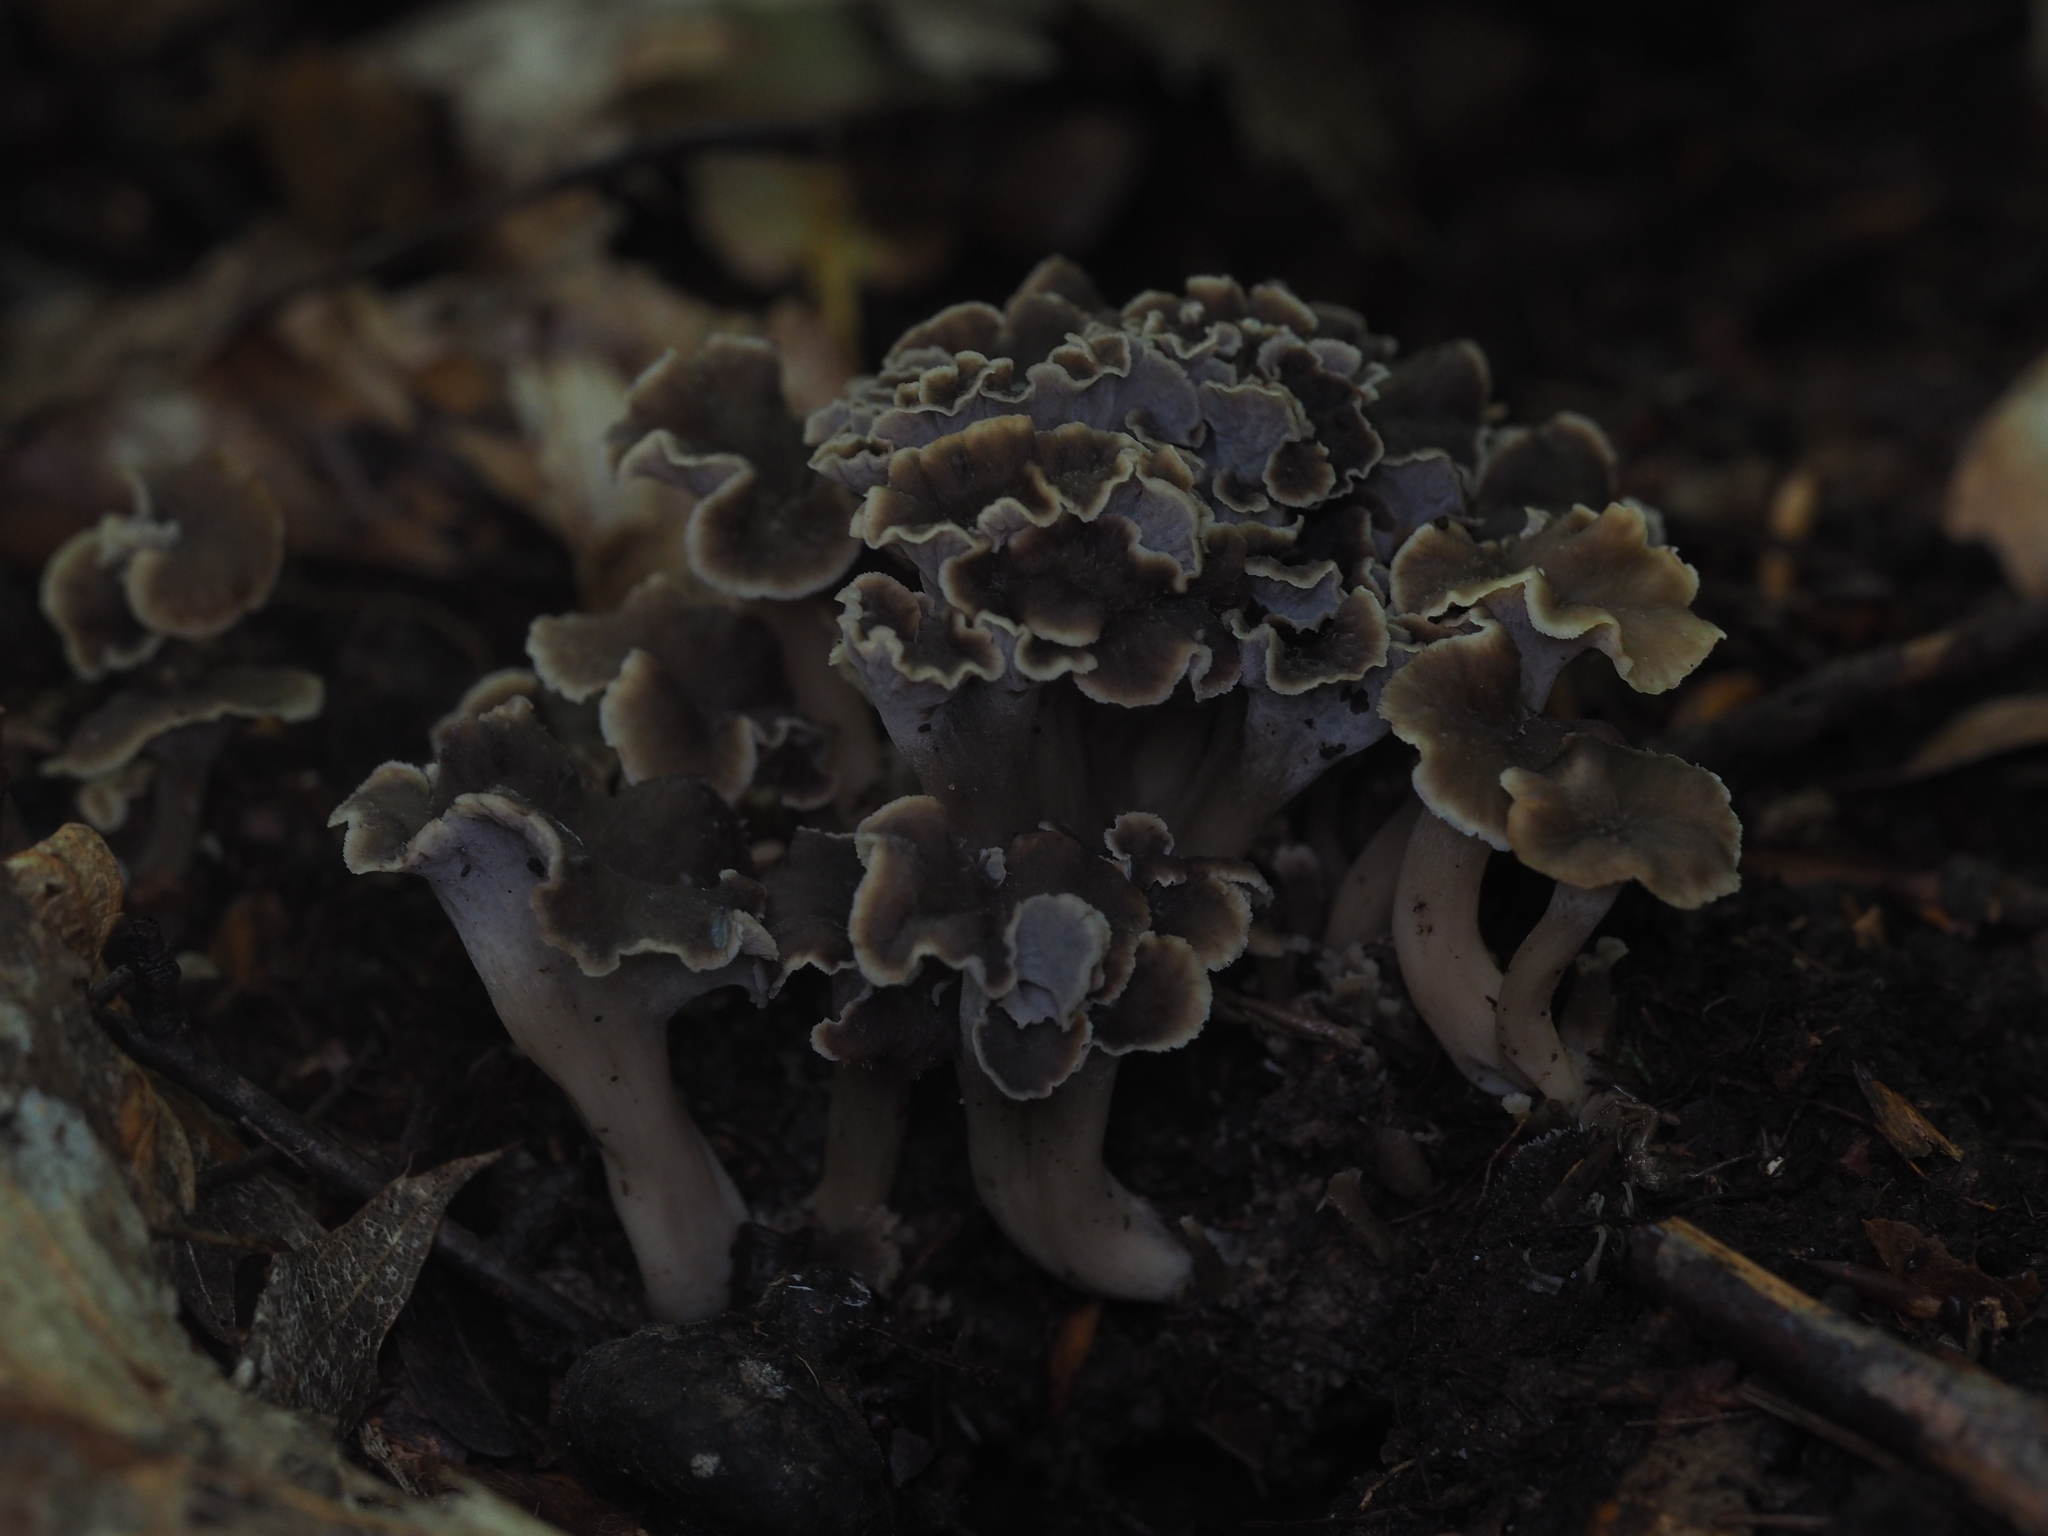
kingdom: Fungi
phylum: Basidiomycota
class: Agaricomycetes
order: Cantharellales
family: Hydnaceae
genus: Craterellus
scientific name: Craterellus undulatus
